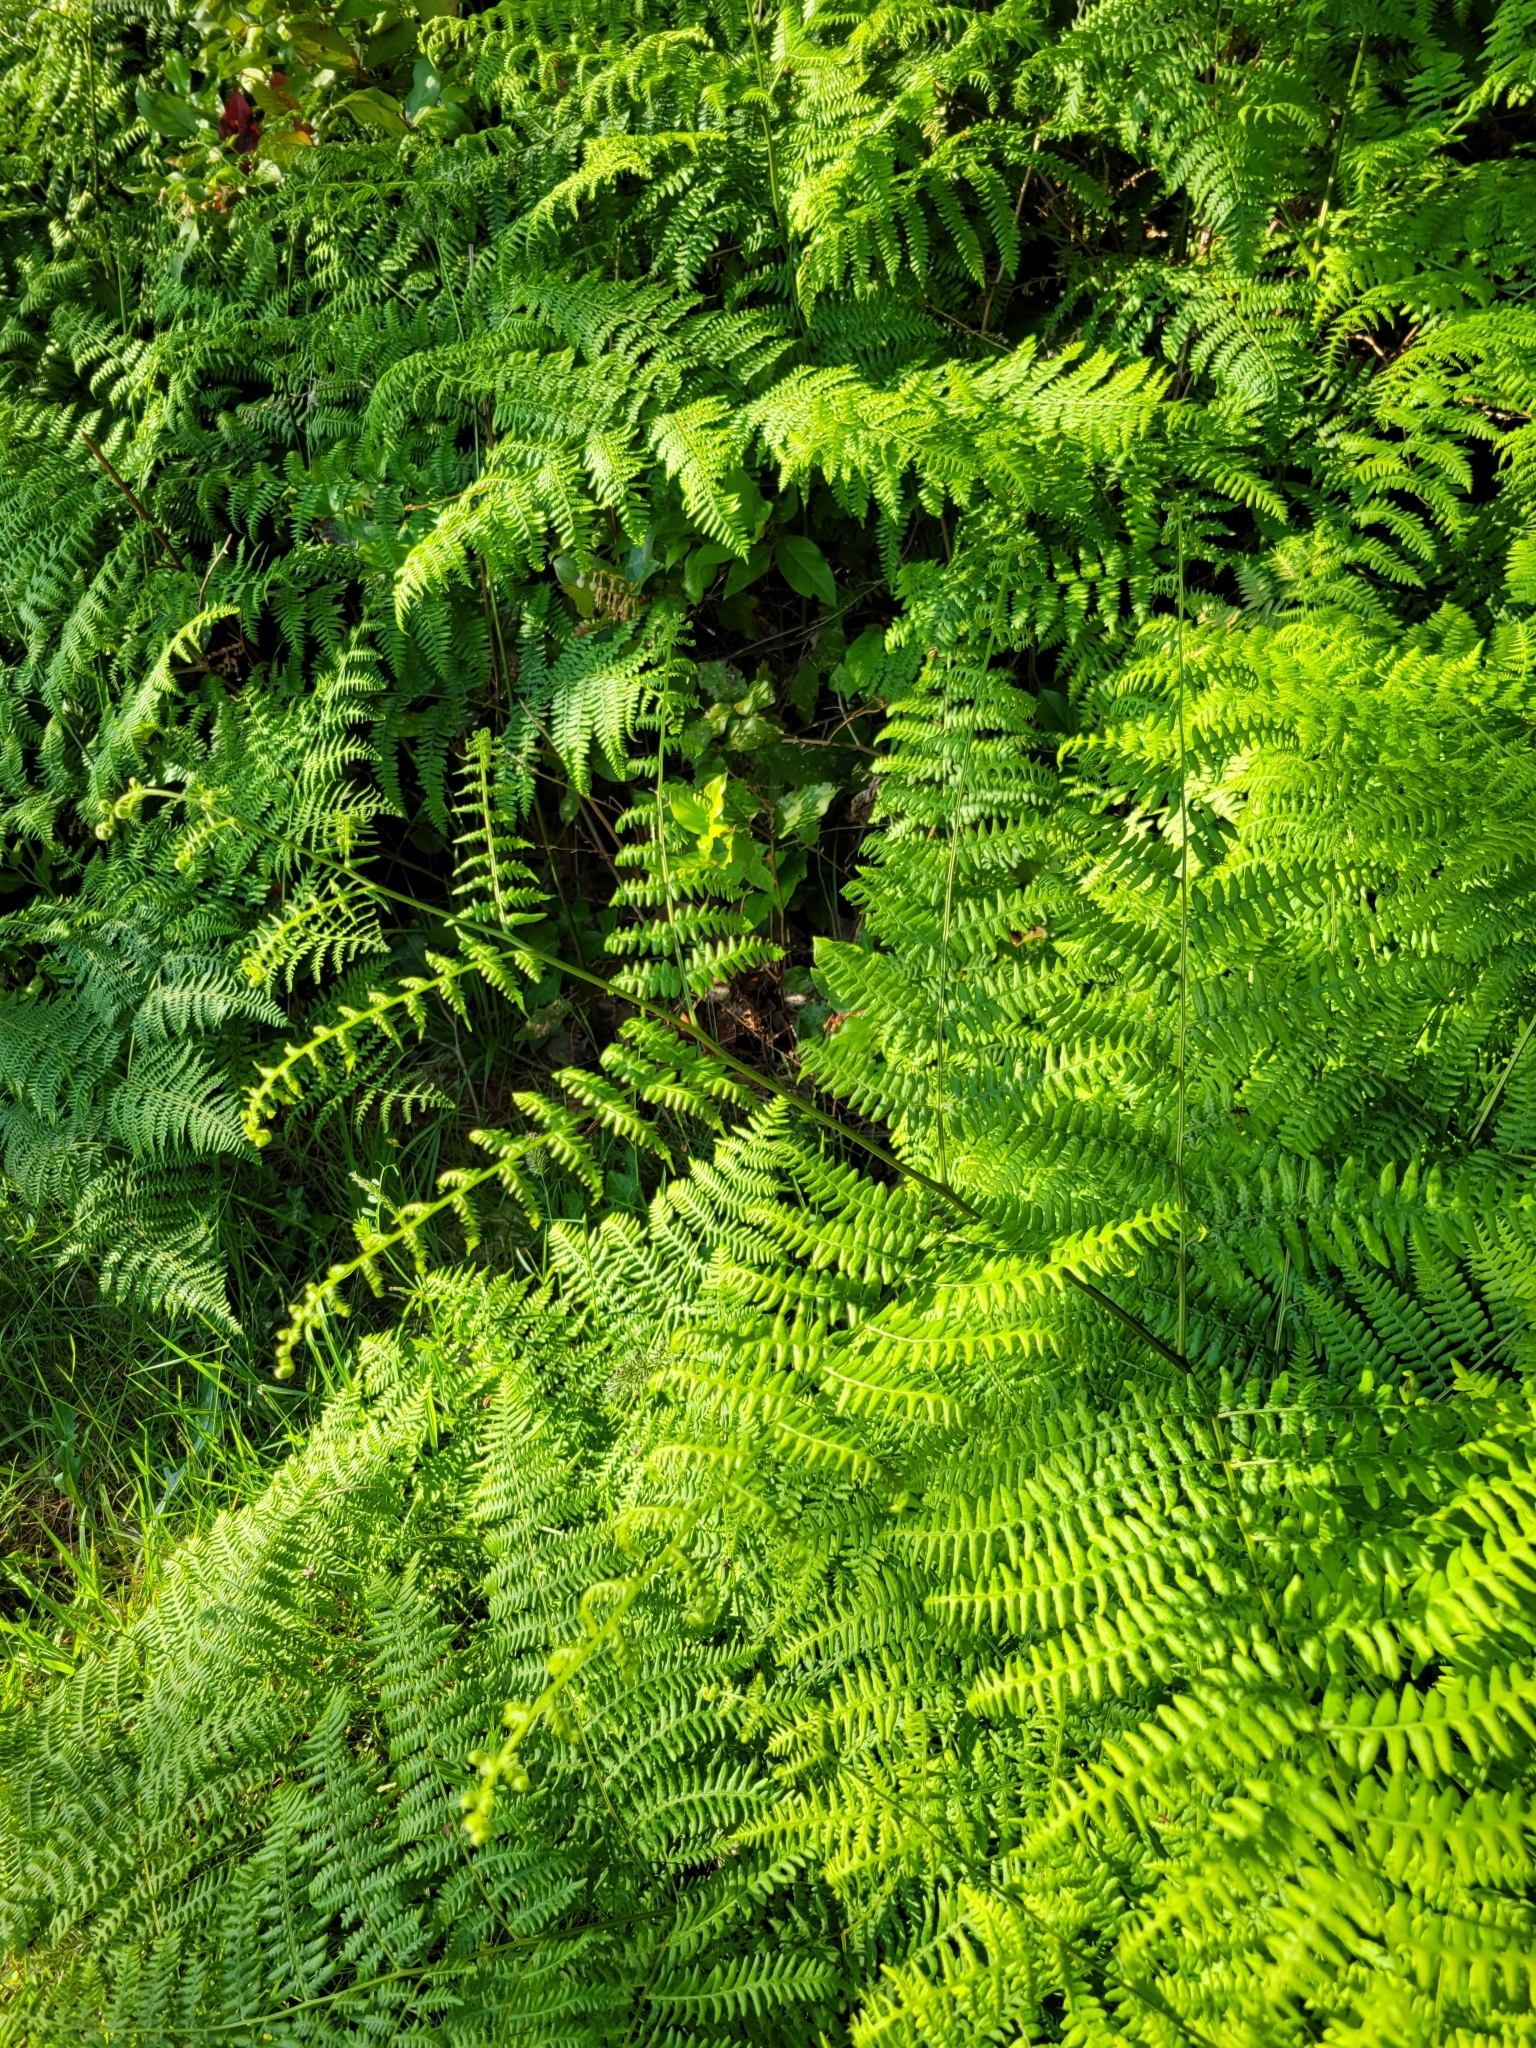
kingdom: Plantae
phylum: Tracheophyta
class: Polypodiopsida
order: Polypodiales
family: Dennstaedtiaceae
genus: Pteridium
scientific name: Pteridium aquilinum
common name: Bracken
